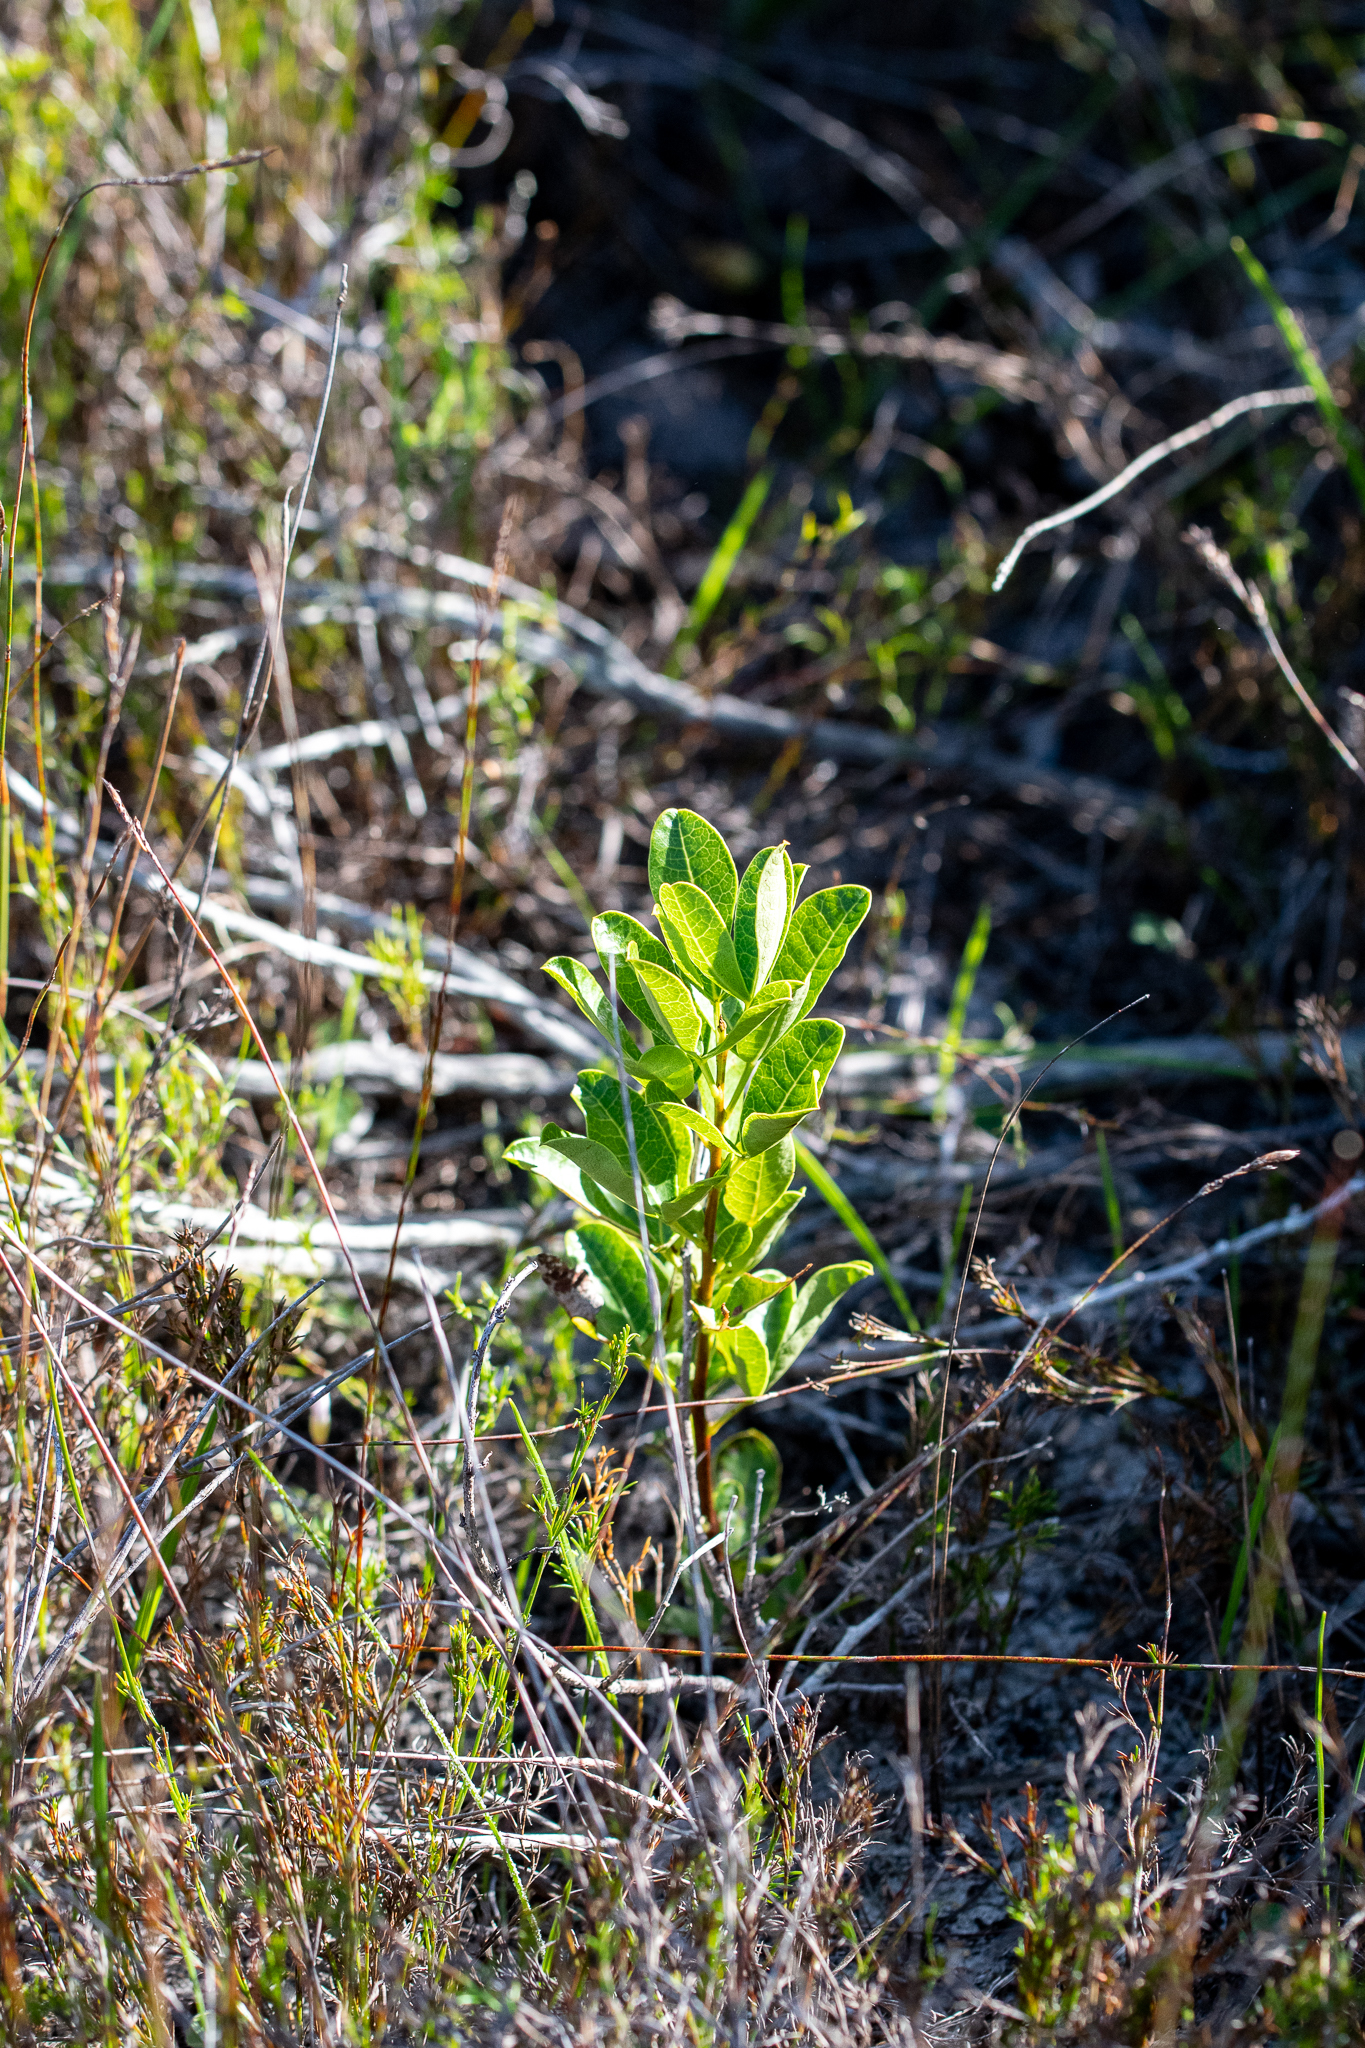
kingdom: Plantae
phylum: Tracheophyta
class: Magnoliopsida
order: Sapindales
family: Anacardiaceae
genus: Searsia
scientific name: Searsia laevigata
